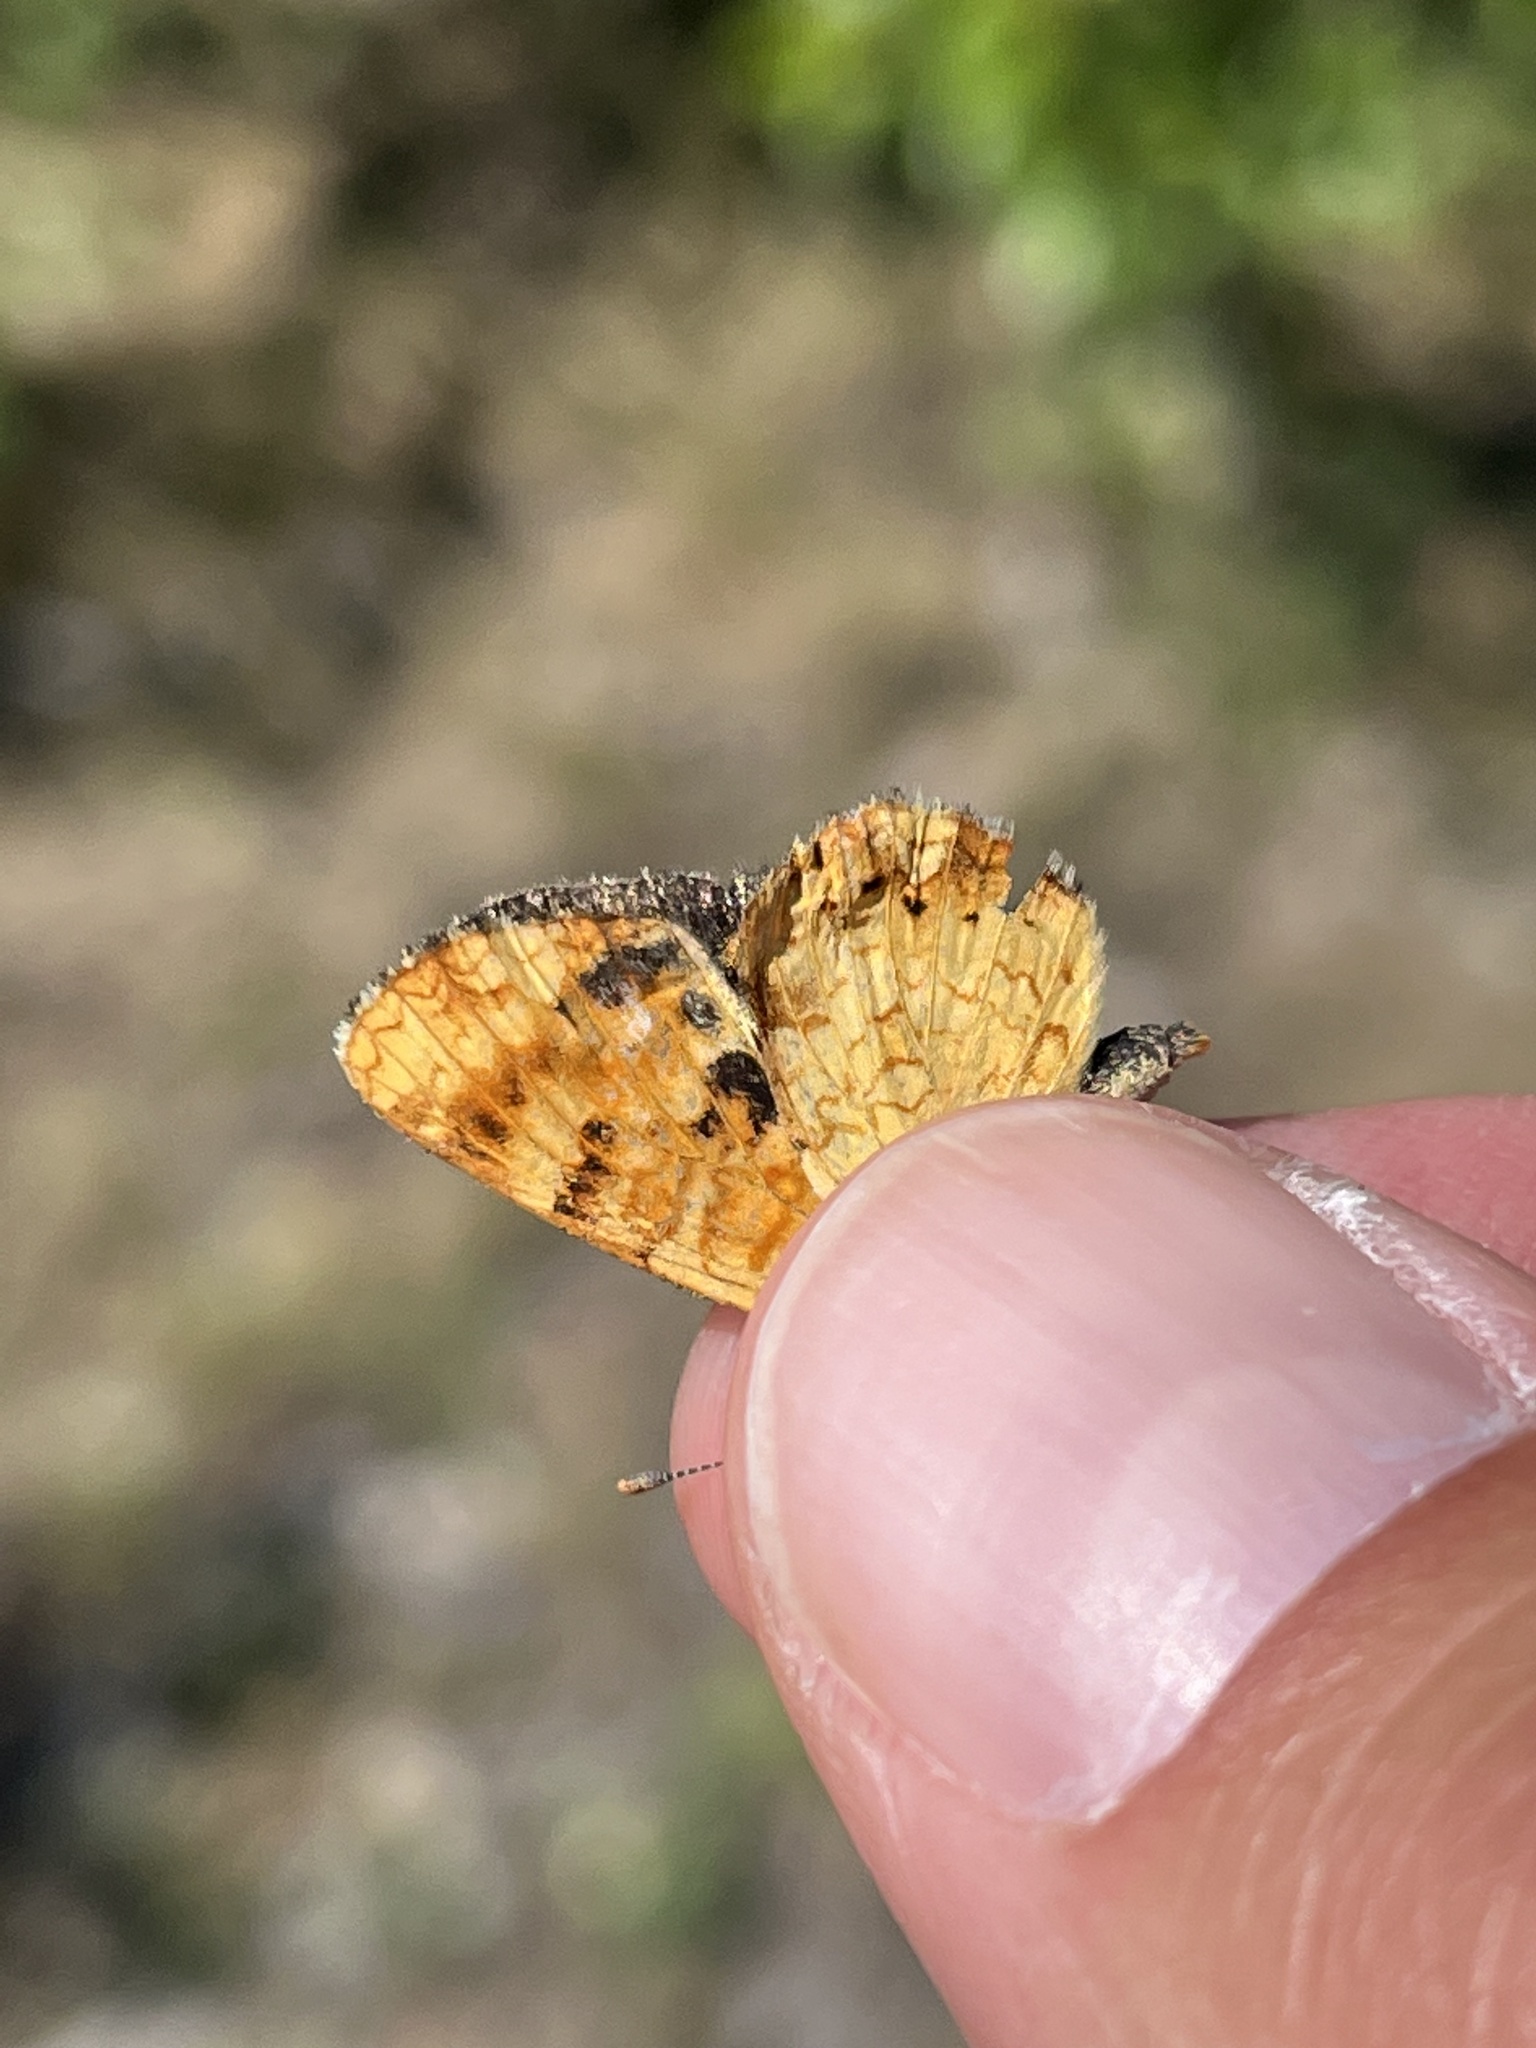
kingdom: Animalia
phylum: Arthropoda
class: Insecta
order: Lepidoptera
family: Nymphalidae
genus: Phyciodes
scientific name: Phyciodes tharos
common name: Pearl crescent
